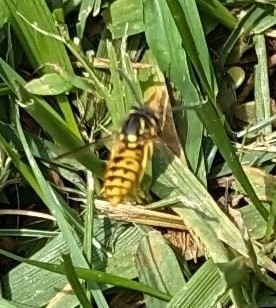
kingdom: Animalia
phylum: Arthropoda
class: Insecta
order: Hymenoptera
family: Vespidae
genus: Vespula
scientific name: Vespula germanica
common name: German wasp
